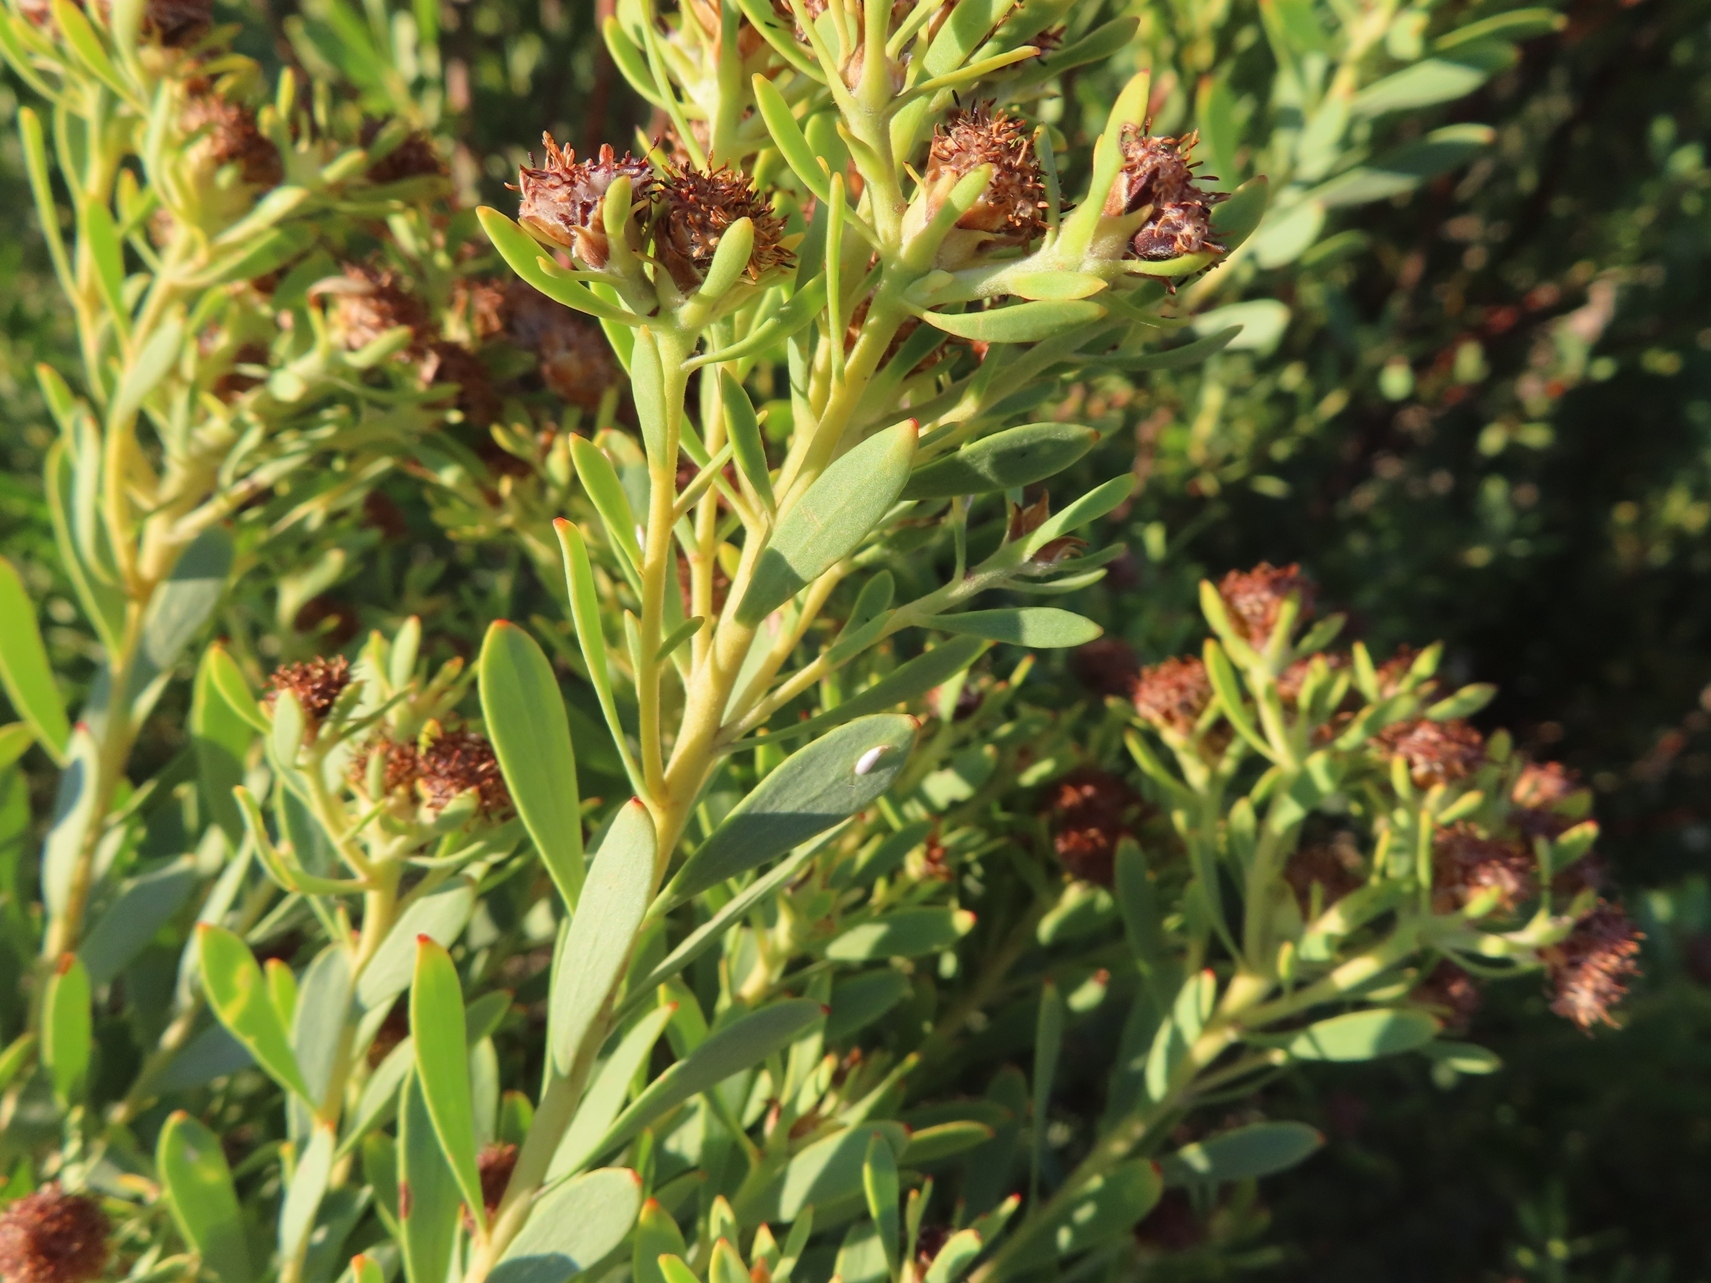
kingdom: Plantae
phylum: Tracheophyta
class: Magnoliopsida
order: Proteales
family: Proteaceae
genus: Leucadendron
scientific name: Leucadendron pubescens
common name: Grey conebush
